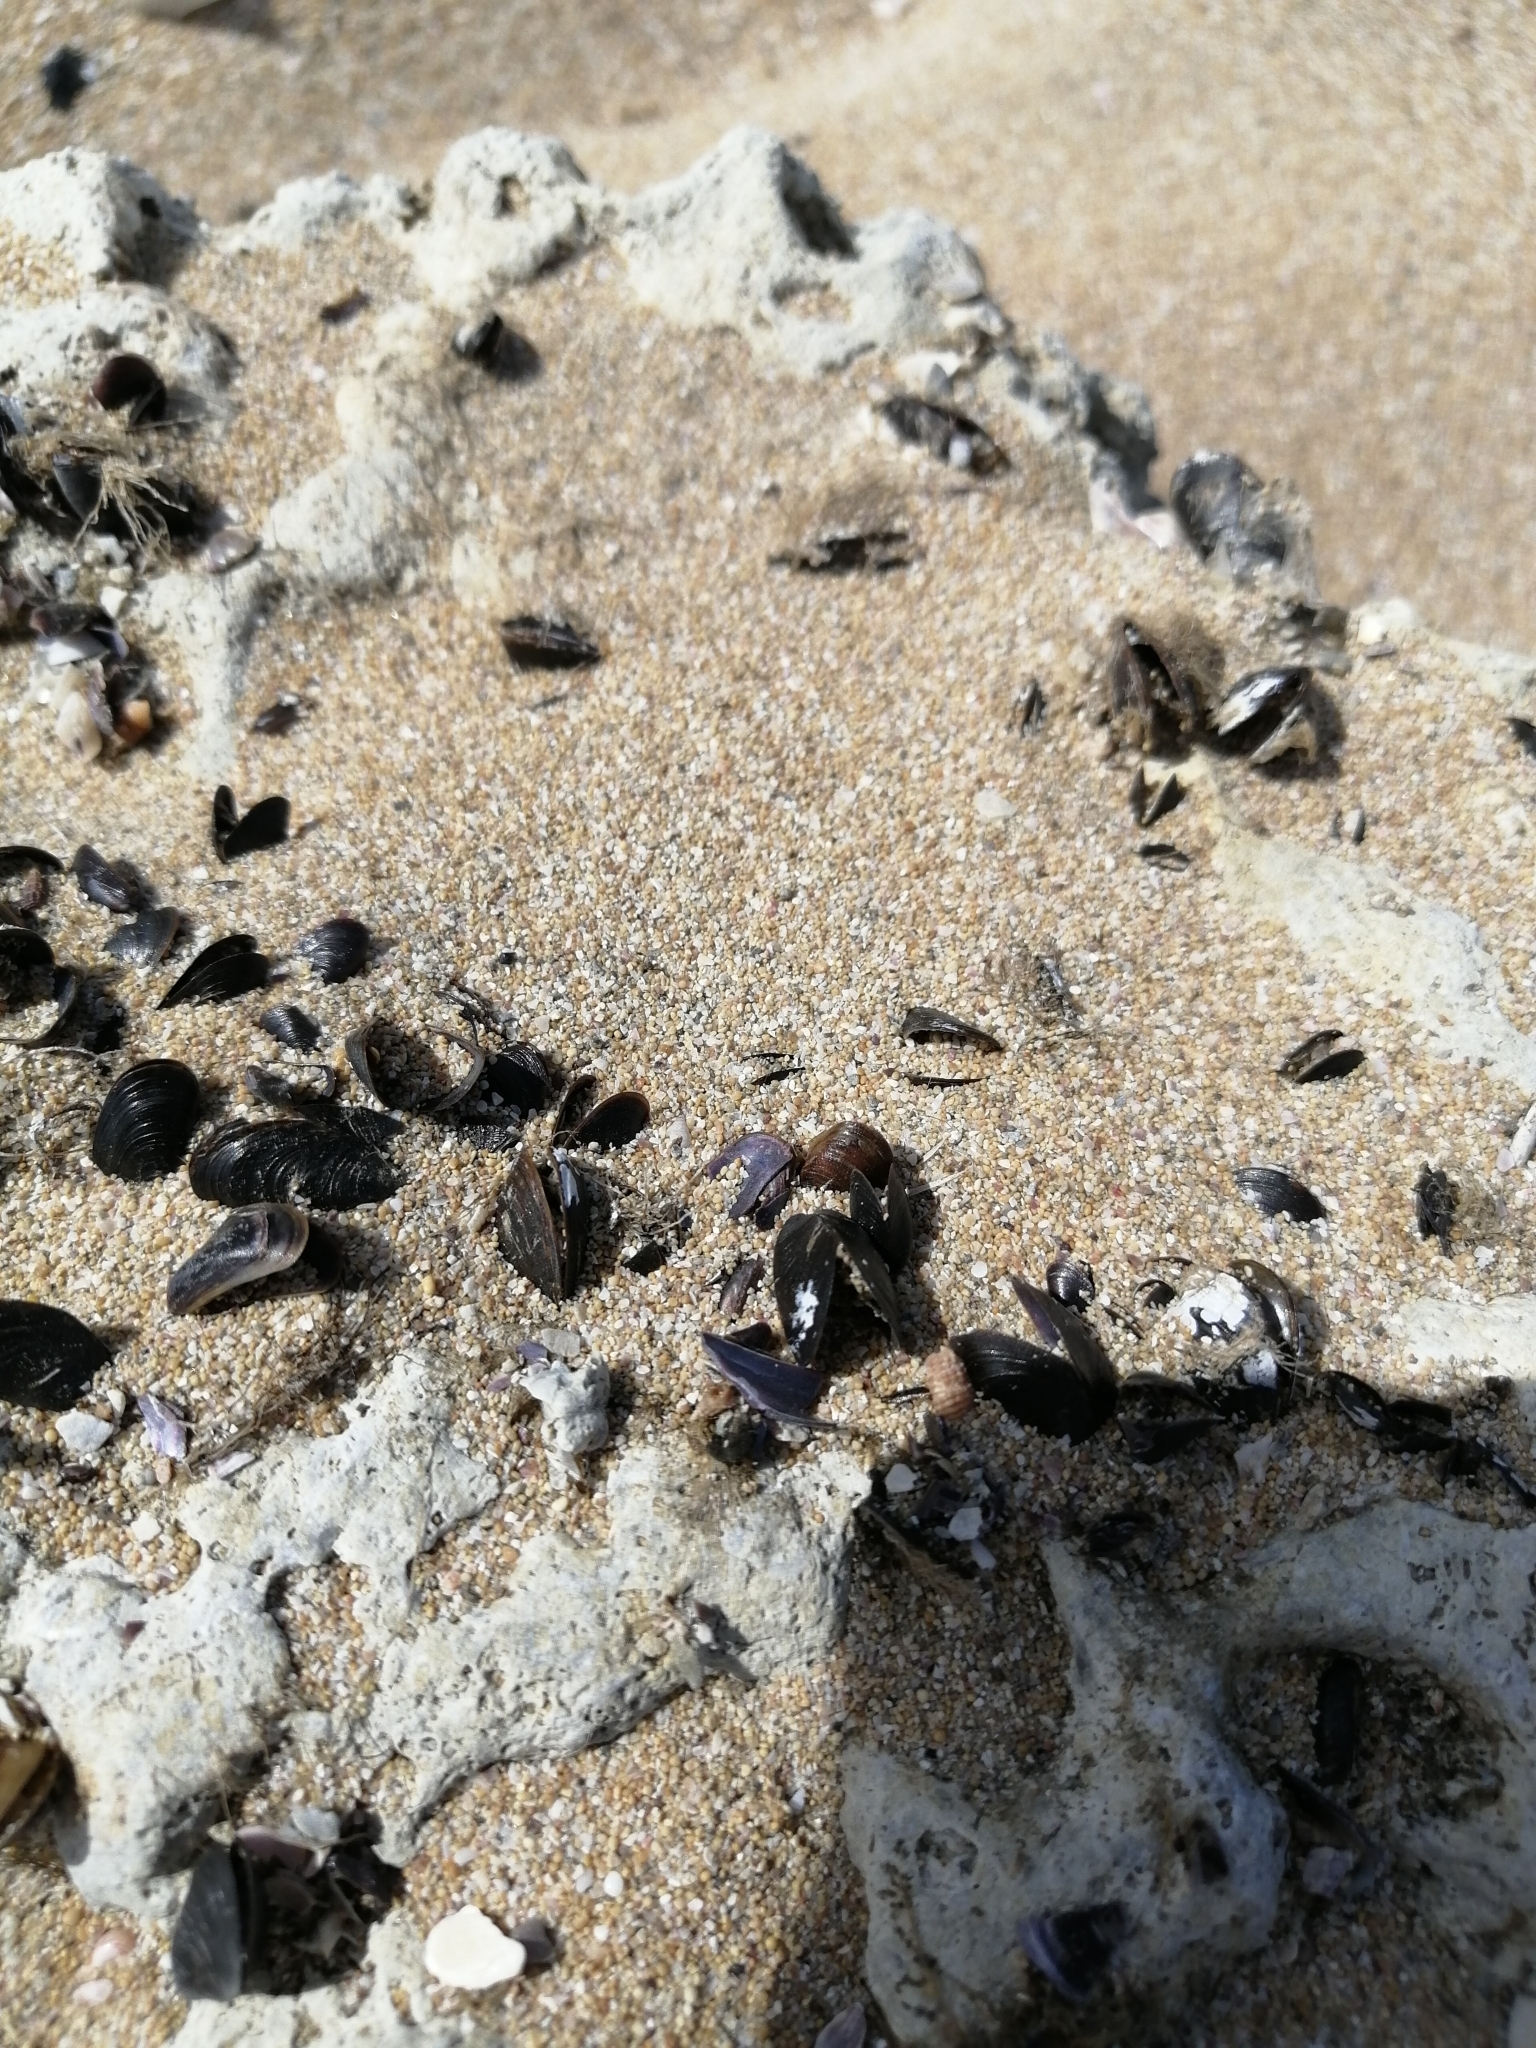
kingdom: Animalia
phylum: Mollusca
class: Bivalvia
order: Mytilida
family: Mytilidae
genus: Mytilus
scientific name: Mytilus galloprovincialis
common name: Mediterranean mussel
